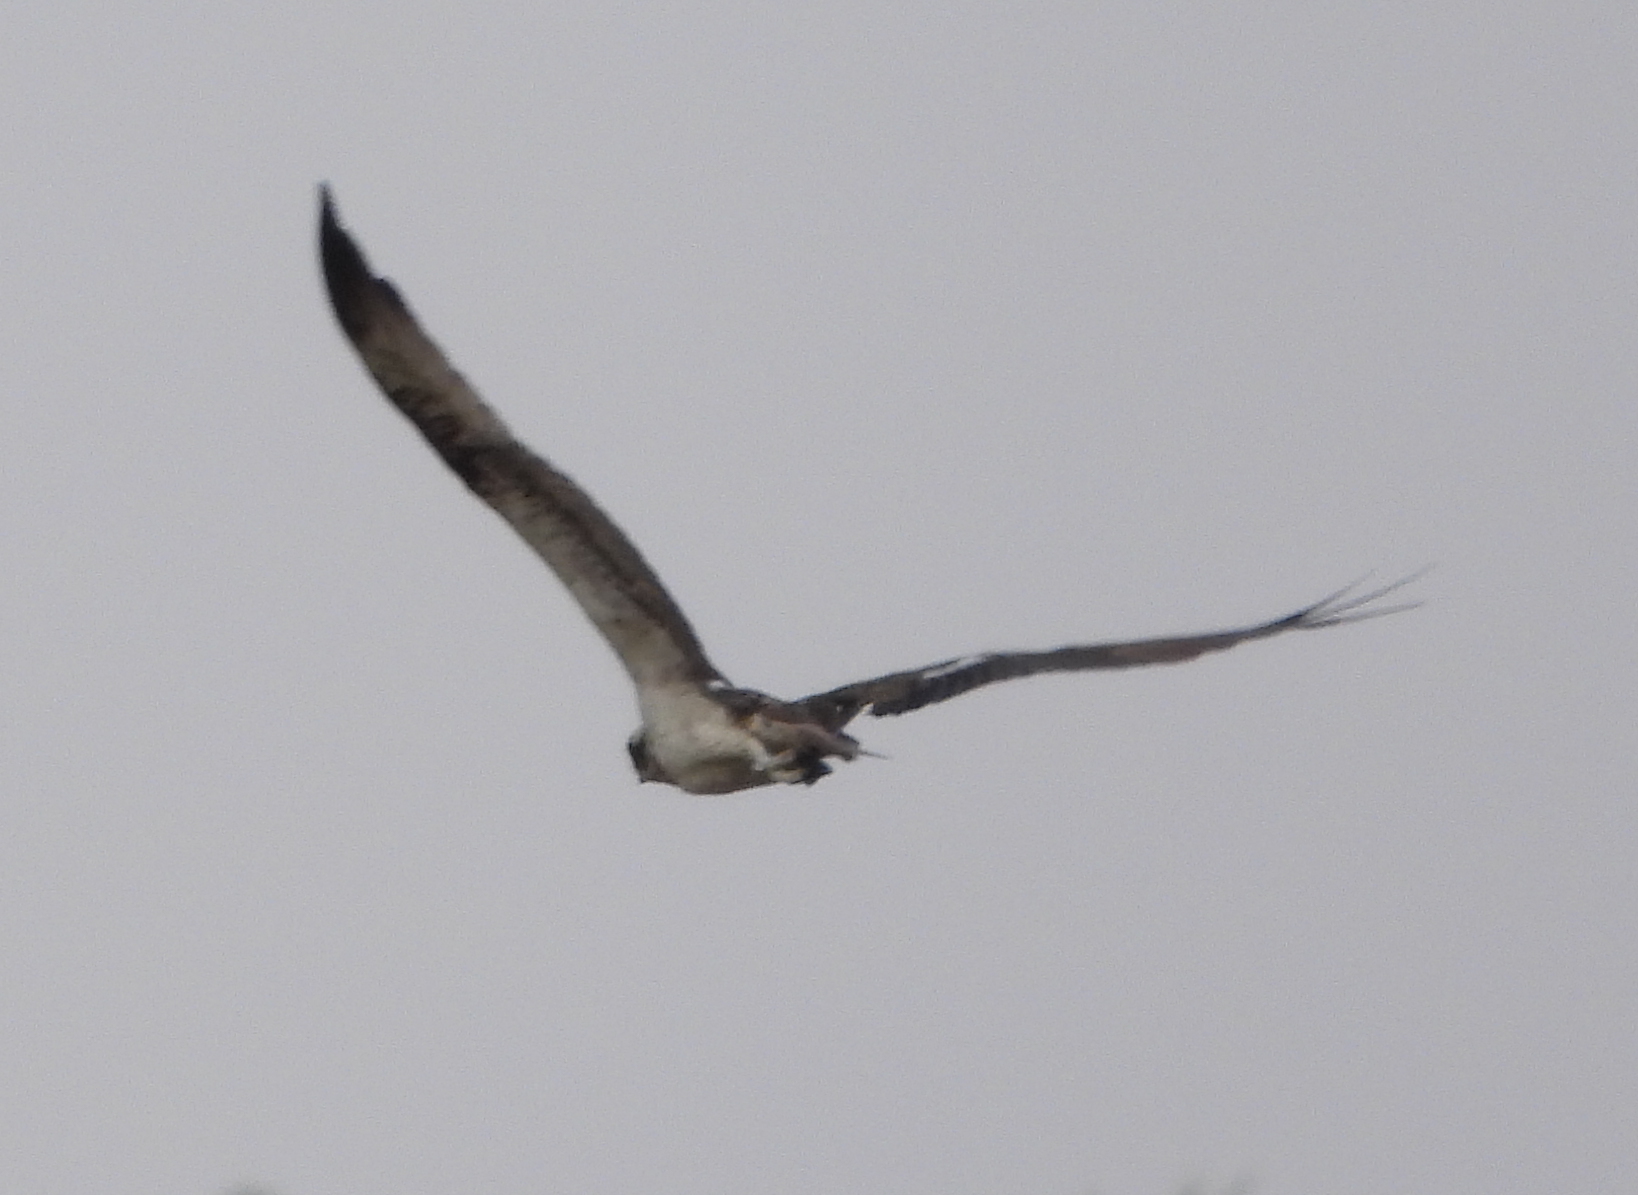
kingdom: Animalia
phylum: Chordata
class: Aves
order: Accipitriformes
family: Pandionidae
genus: Pandion
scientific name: Pandion haliaetus
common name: Osprey
